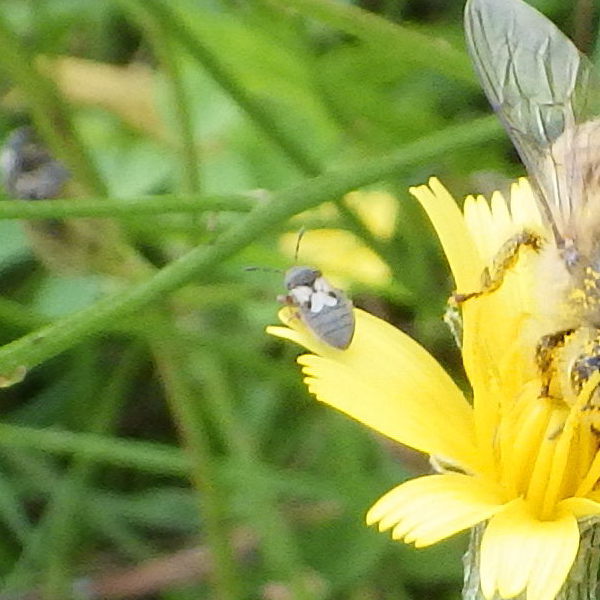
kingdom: Animalia
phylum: Arthropoda
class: Insecta
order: Hemiptera
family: Blissidae
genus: Blissus
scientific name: Blissus leucopterus
